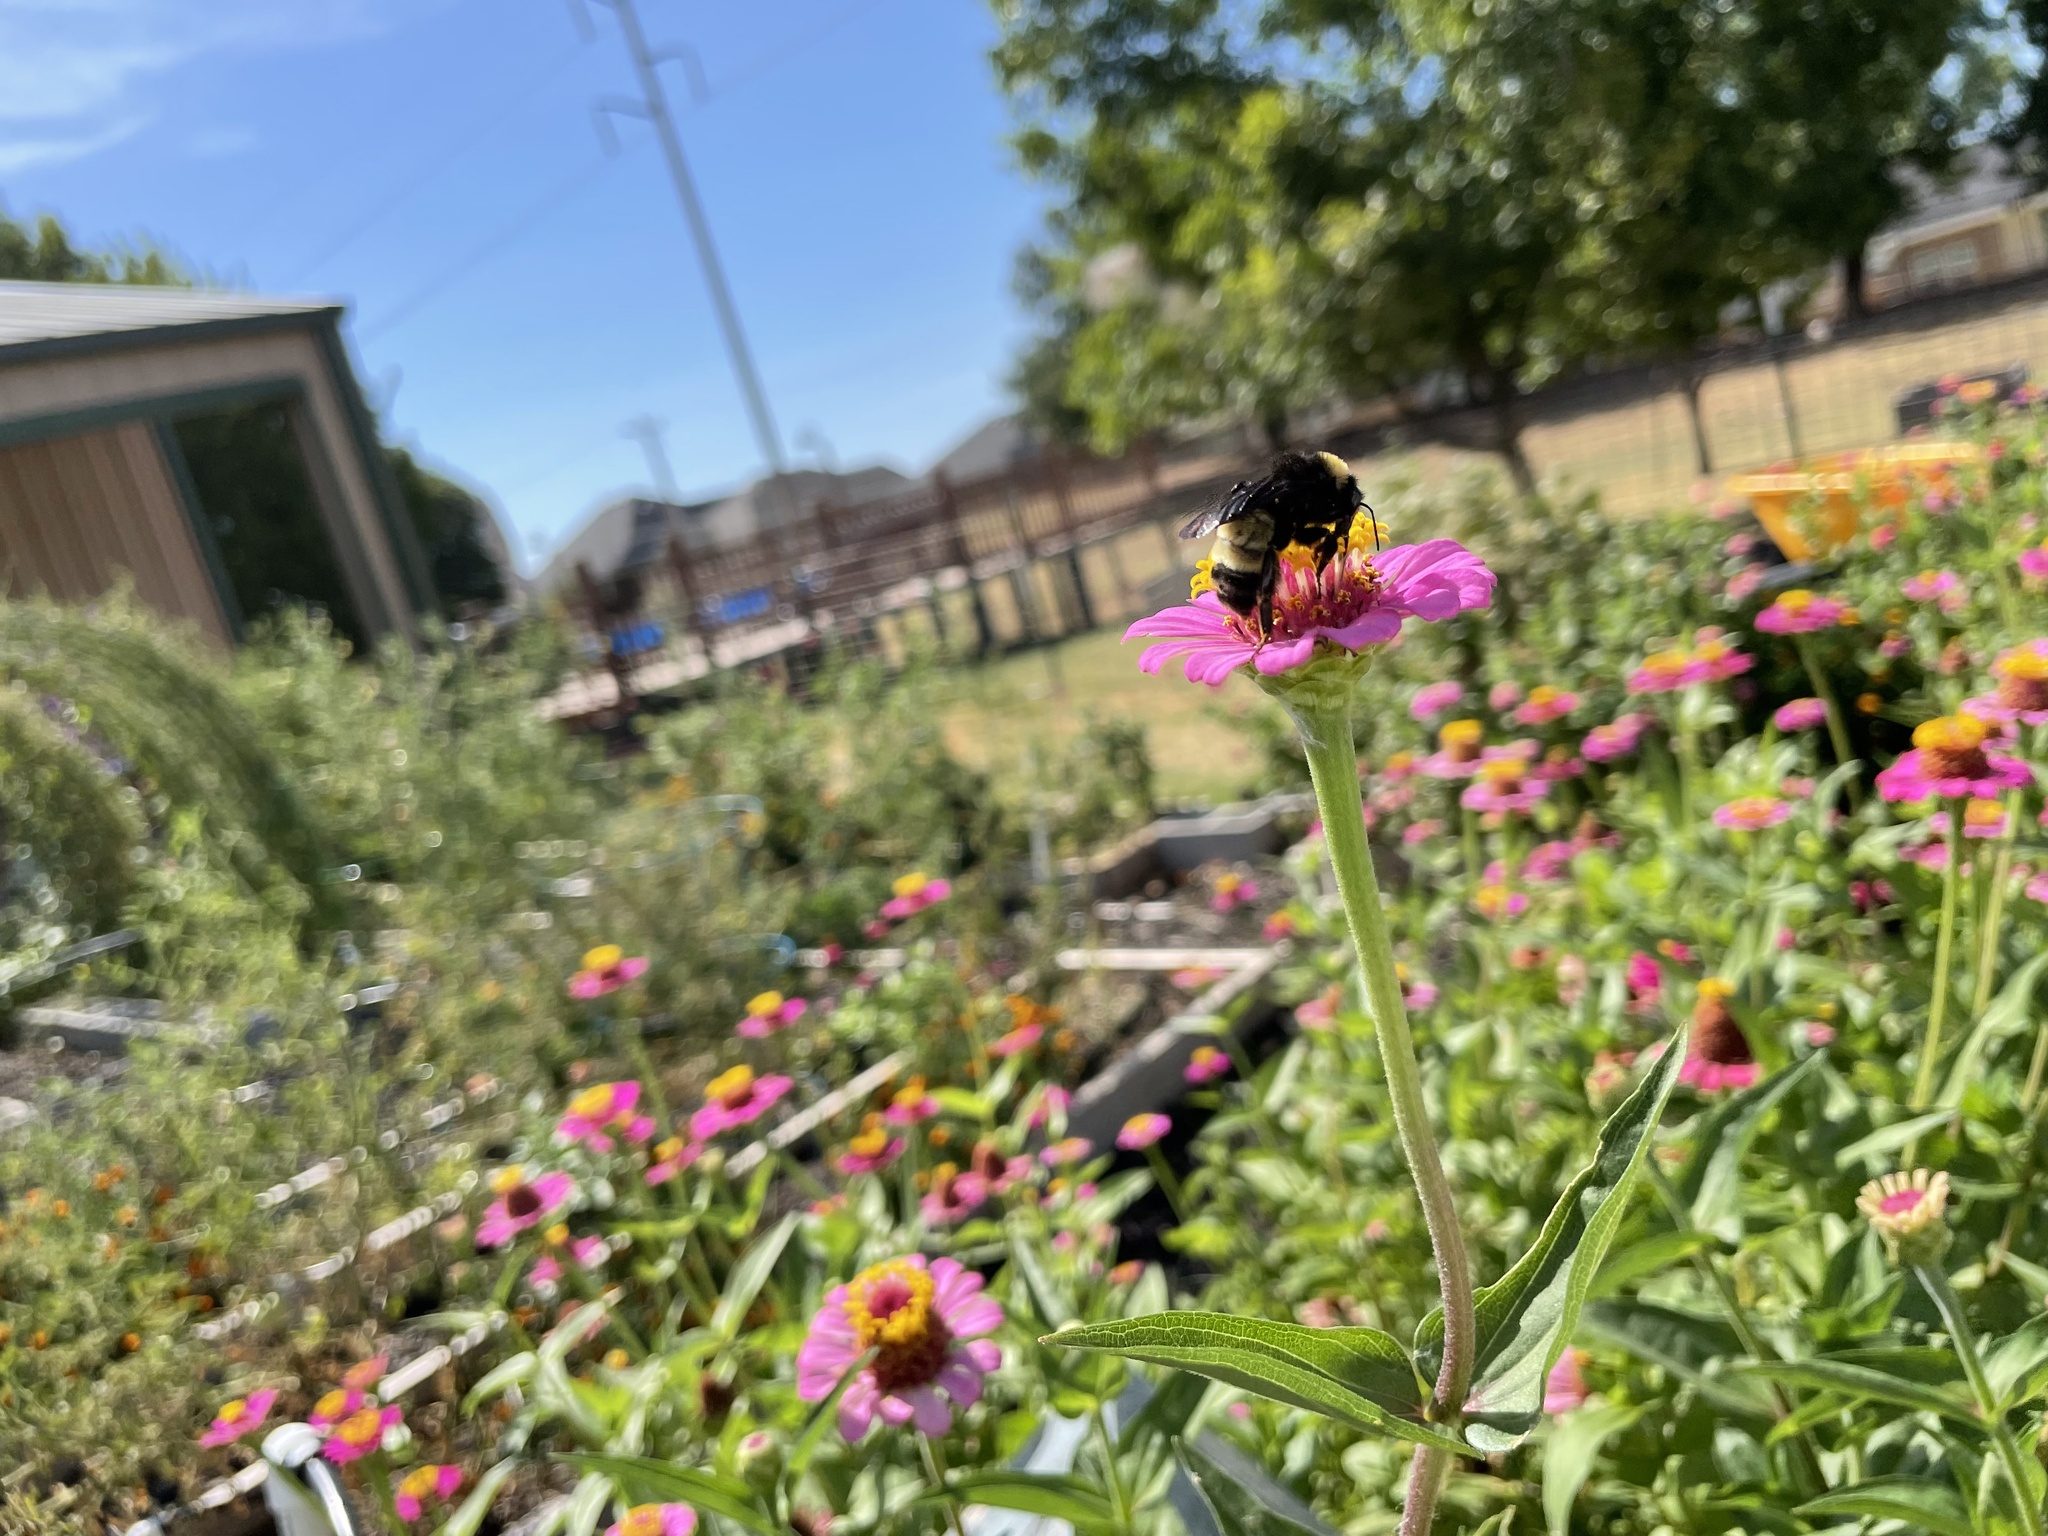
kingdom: Animalia
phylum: Arthropoda
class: Insecta
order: Hymenoptera
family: Apidae
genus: Bombus
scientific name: Bombus pensylvanicus
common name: Bumble bee
